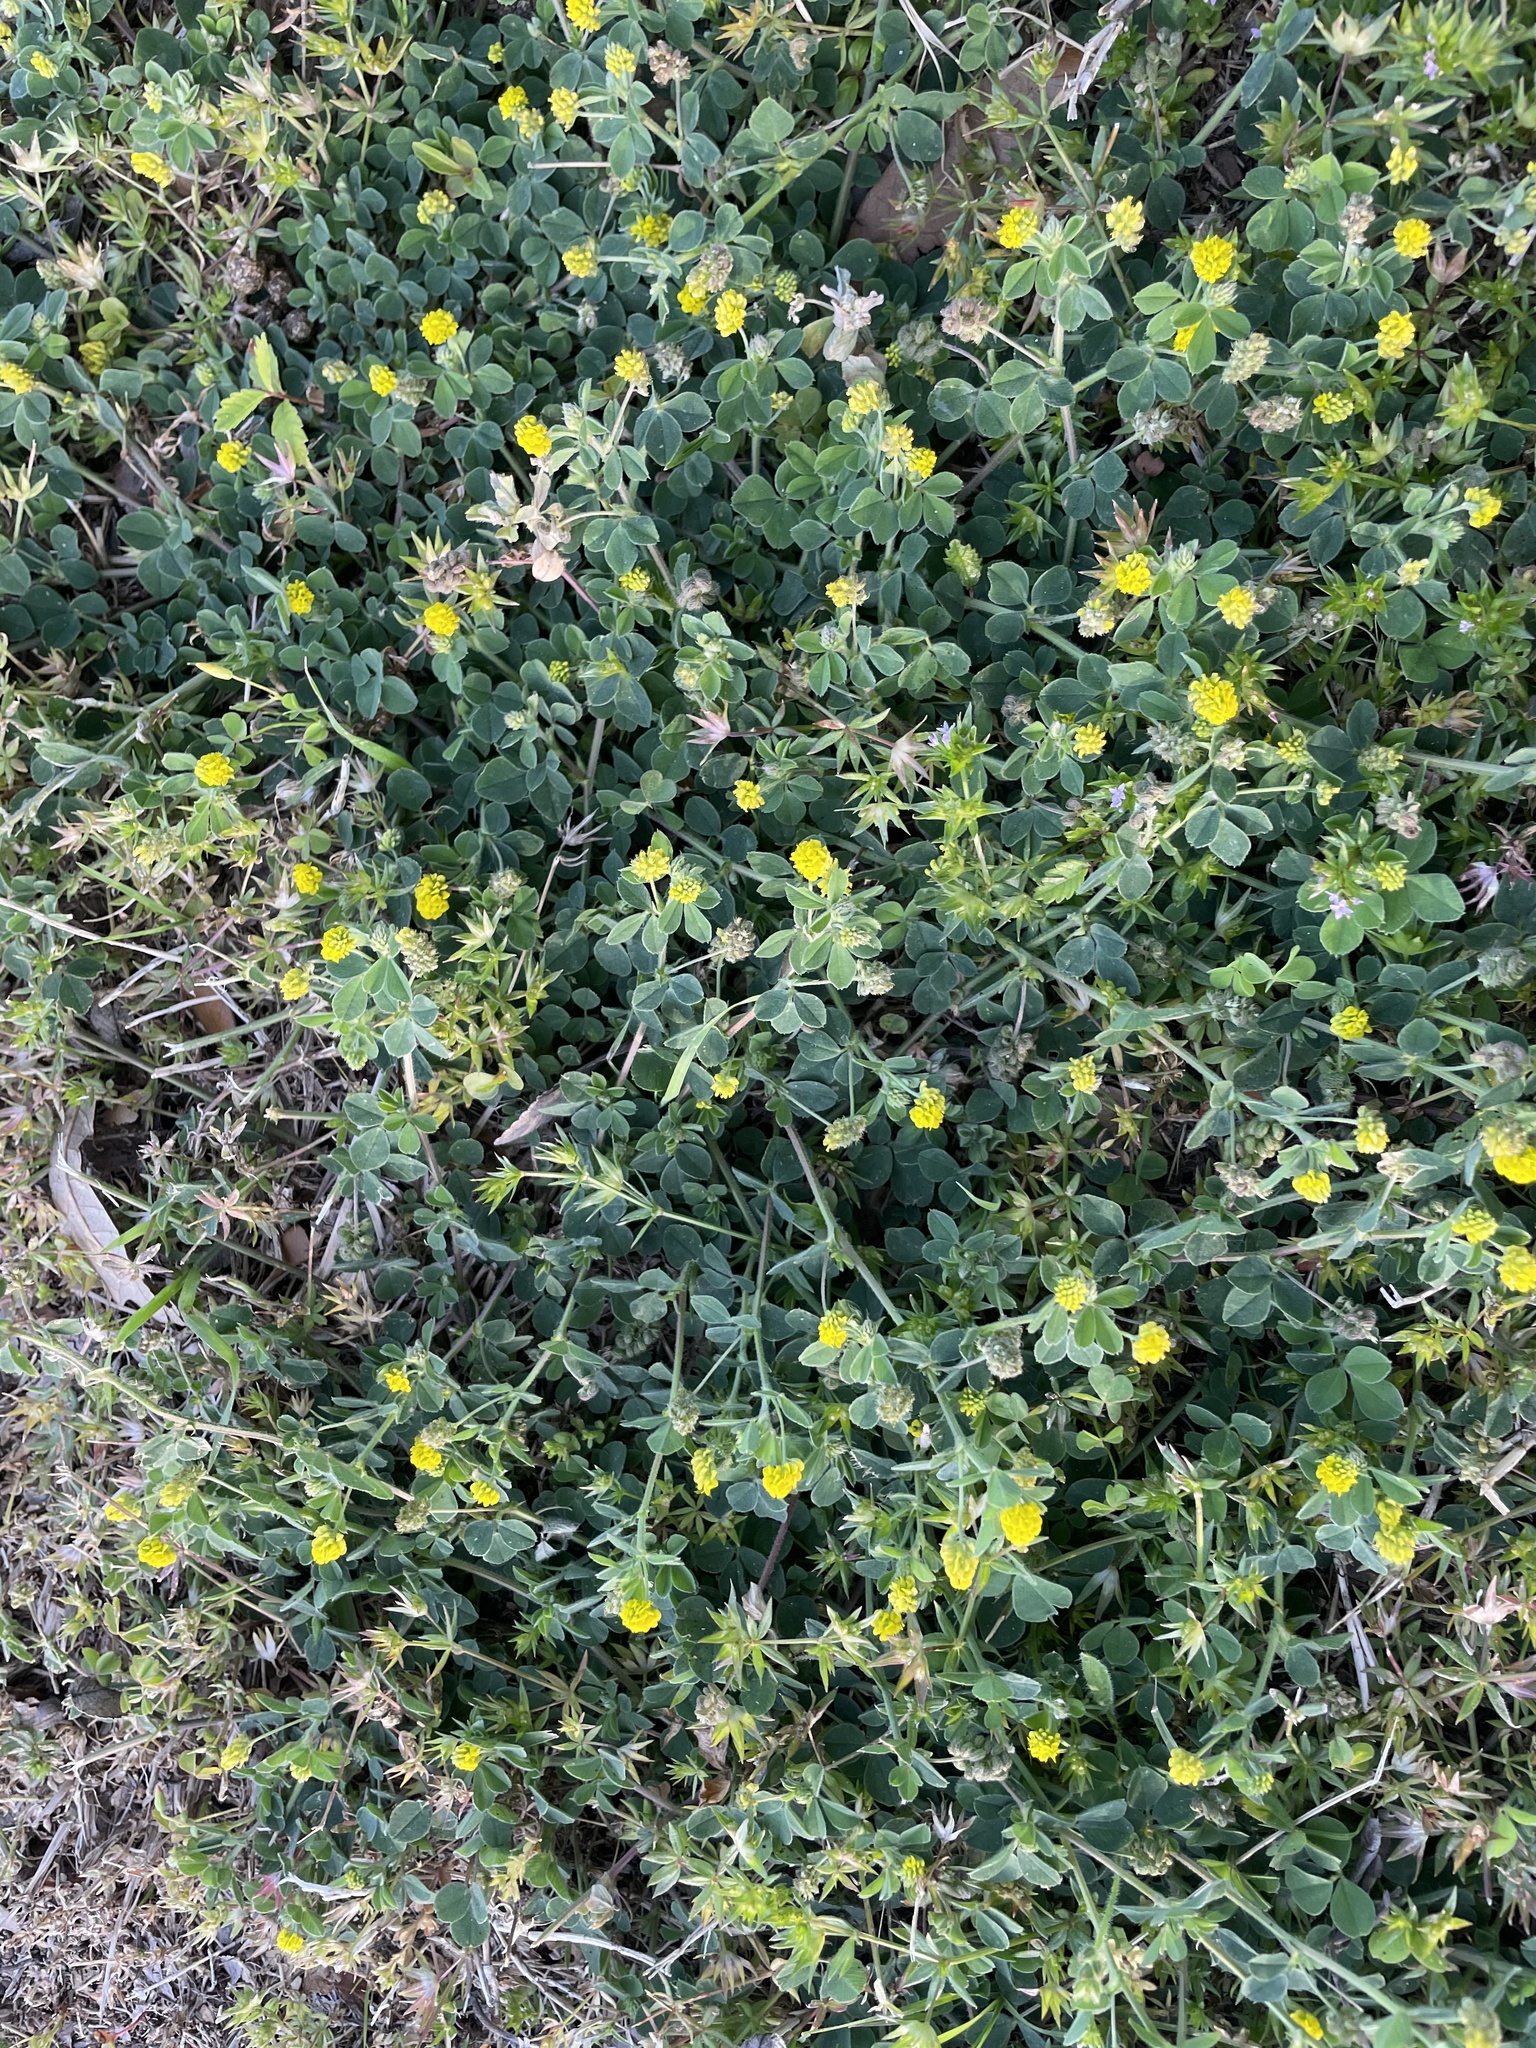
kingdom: Plantae
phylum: Tracheophyta
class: Magnoliopsida
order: Fabales
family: Fabaceae
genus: Medicago
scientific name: Medicago lupulina
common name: Black medick
